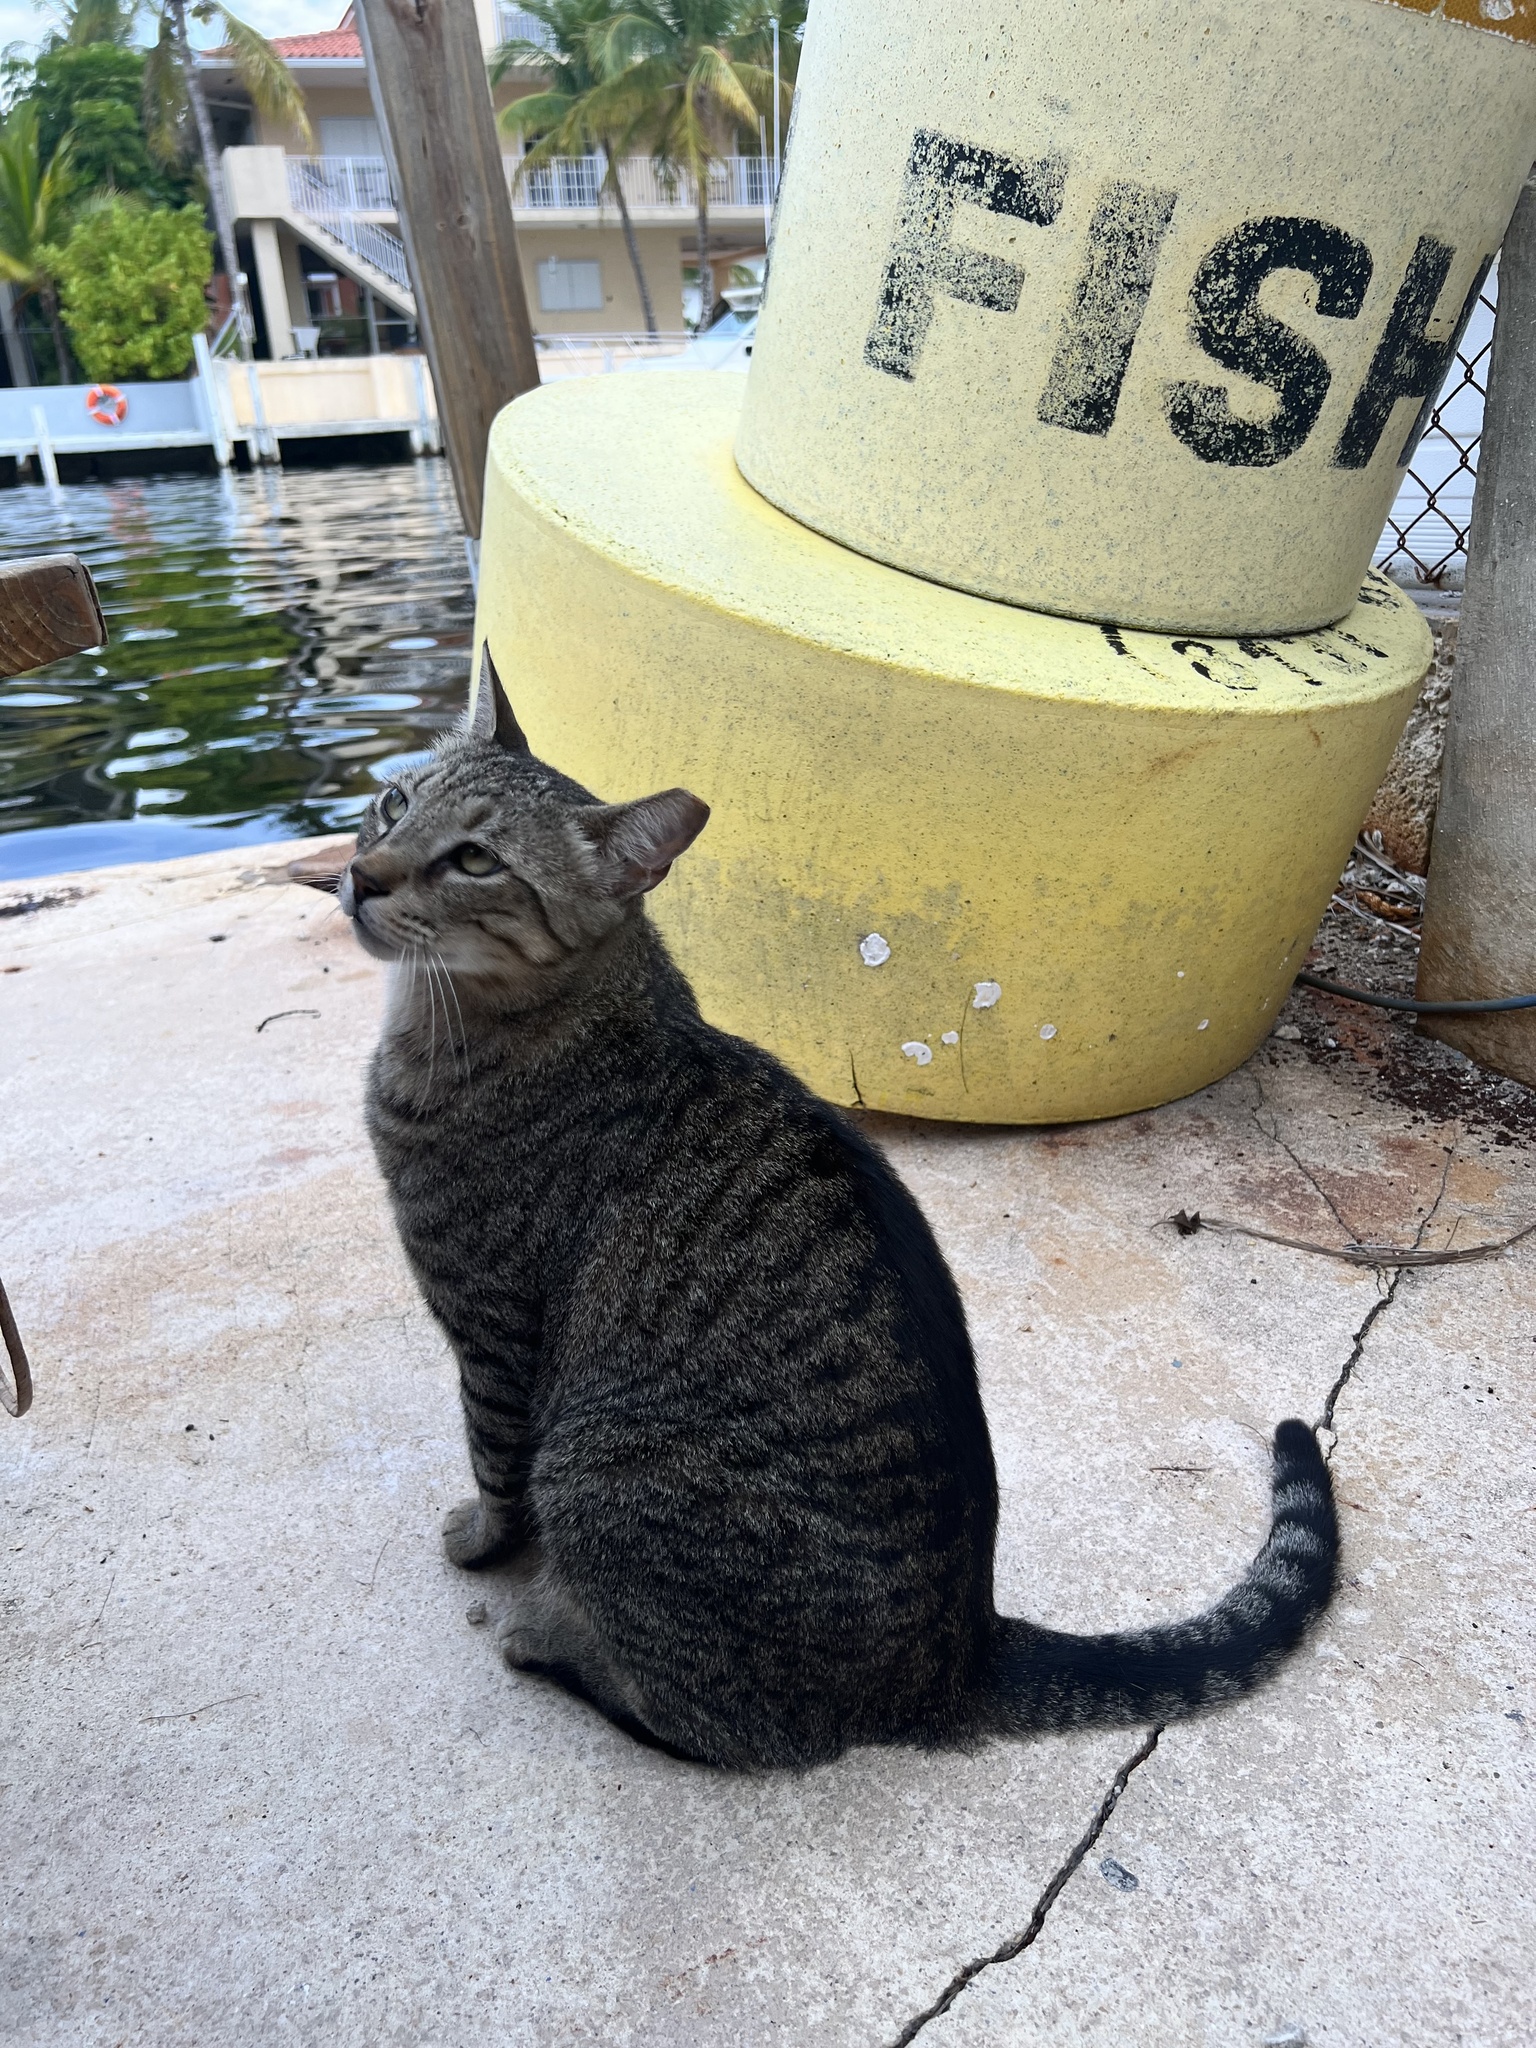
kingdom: Animalia
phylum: Chordata
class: Mammalia
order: Carnivora
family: Felidae
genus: Felis
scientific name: Felis catus
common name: Domestic cat
